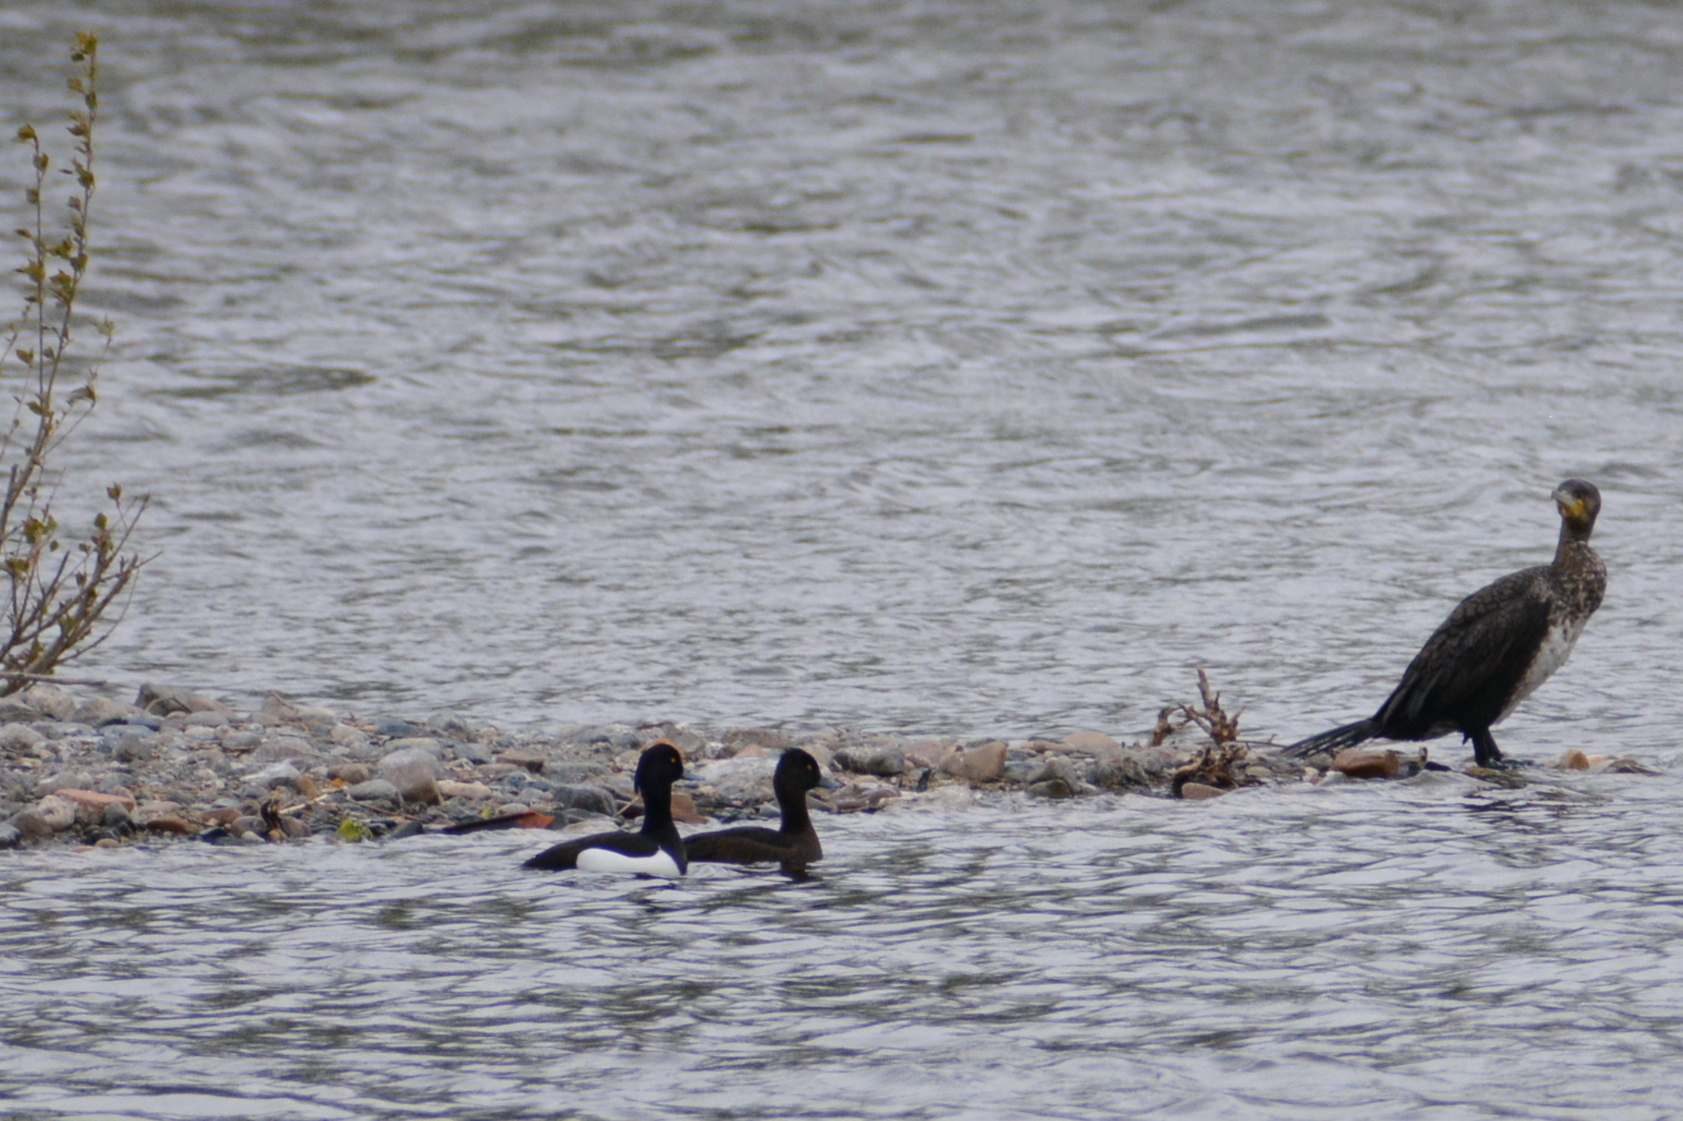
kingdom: Animalia
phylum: Chordata
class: Aves
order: Anseriformes
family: Anatidae
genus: Aythya
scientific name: Aythya fuligula
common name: Tufted duck
